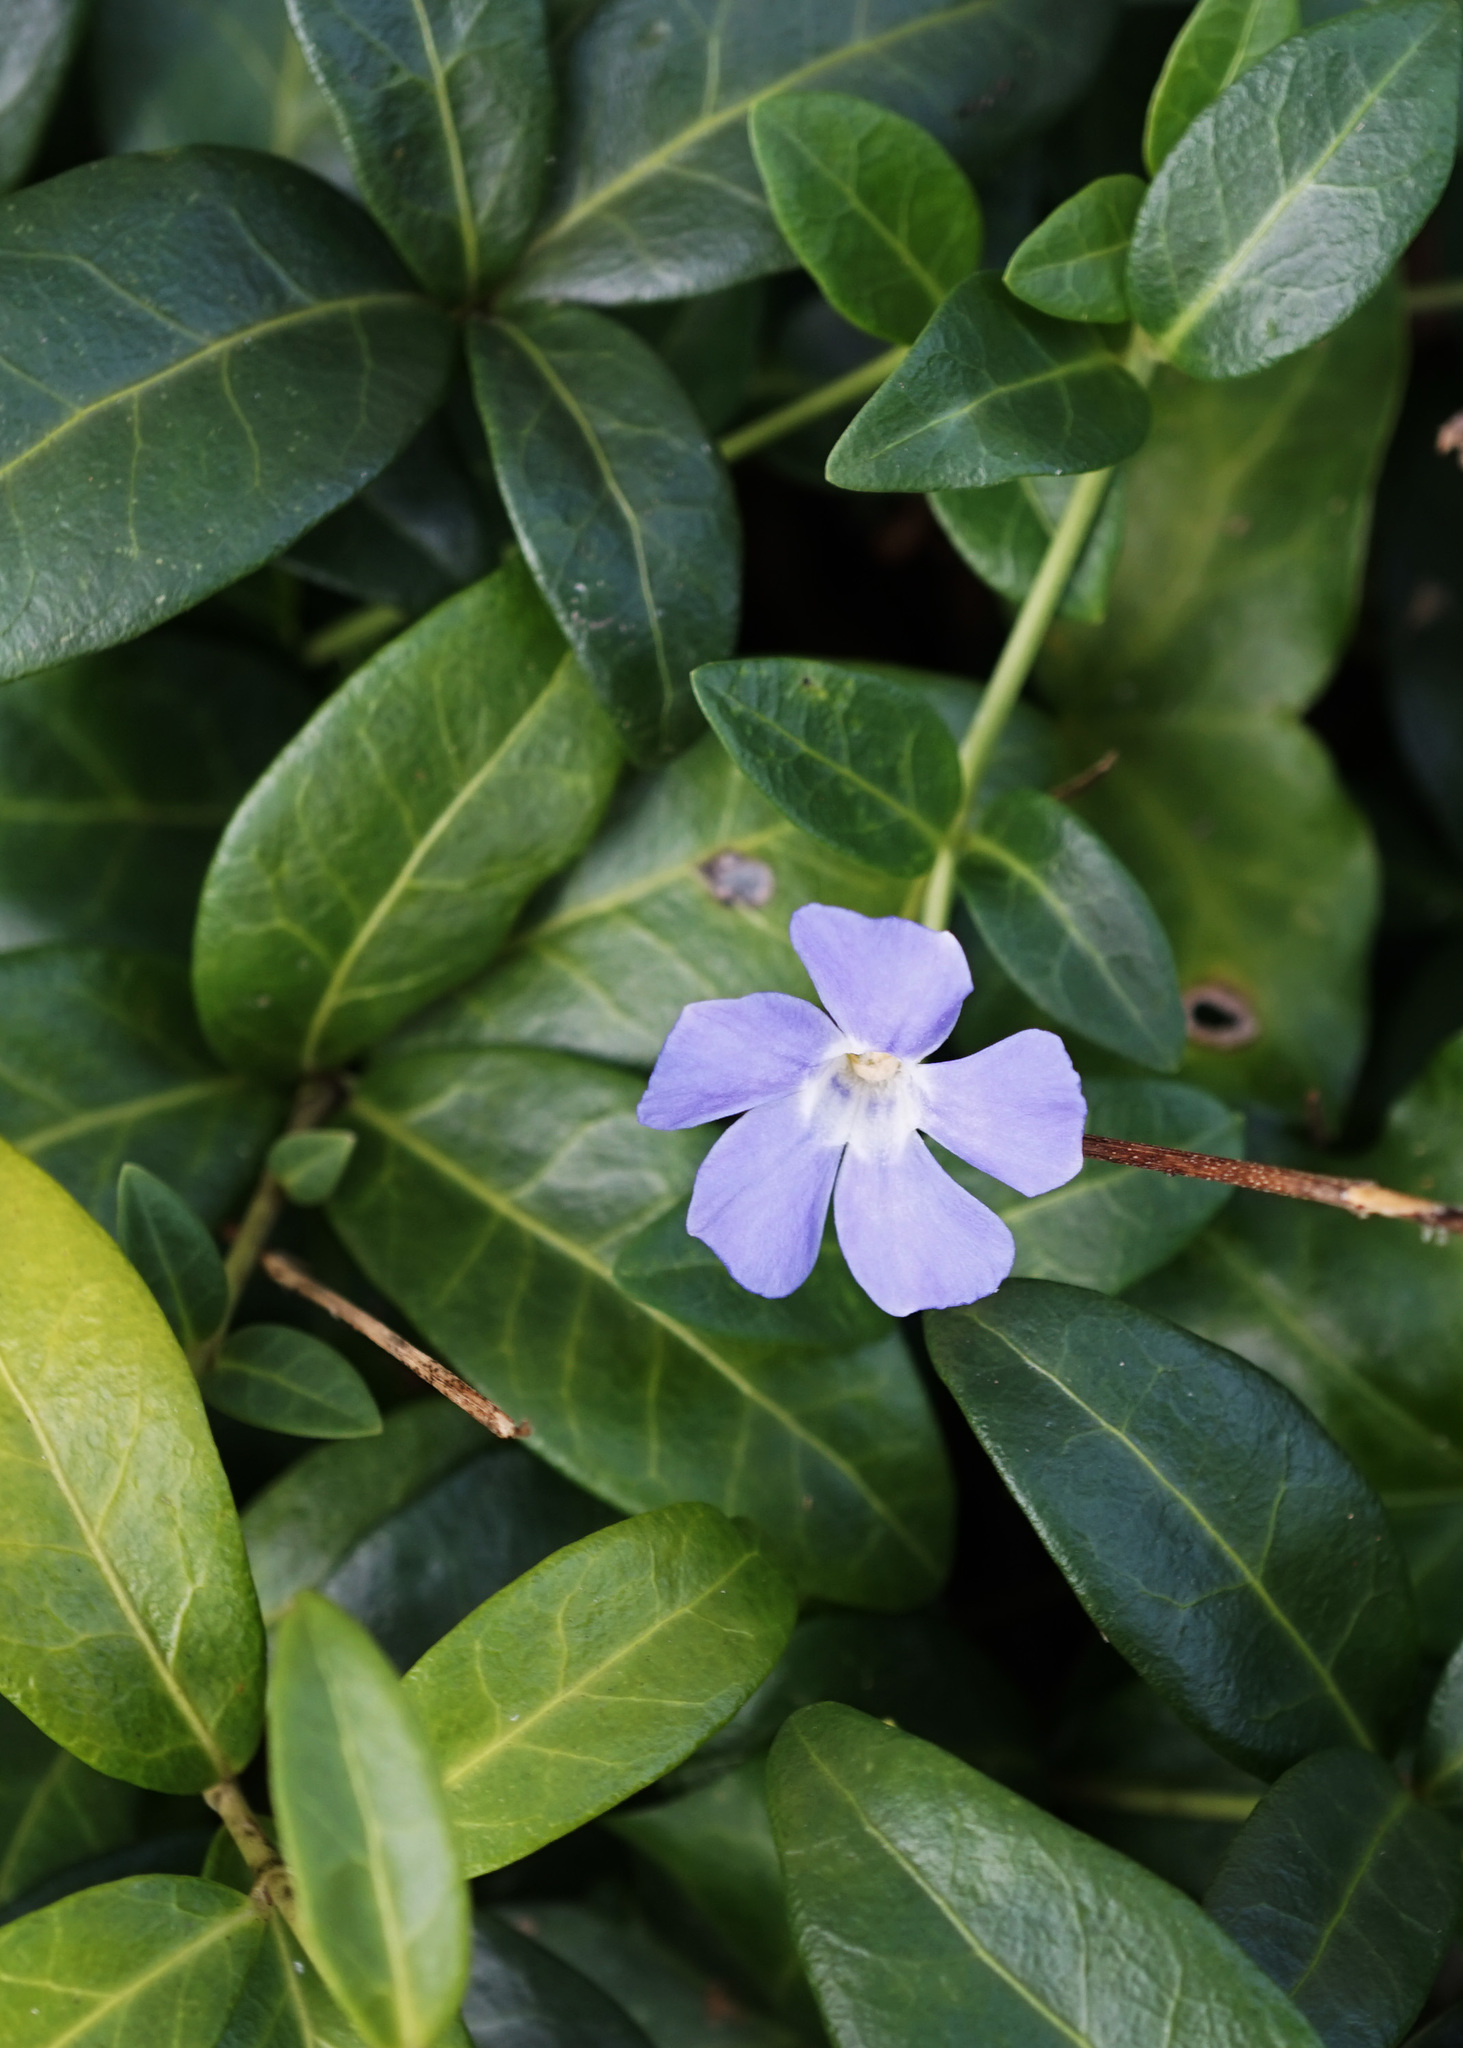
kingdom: Plantae
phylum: Tracheophyta
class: Magnoliopsida
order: Gentianales
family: Apocynaceae
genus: Vinca
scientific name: Vinca minor
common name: Lesser periwinkle
